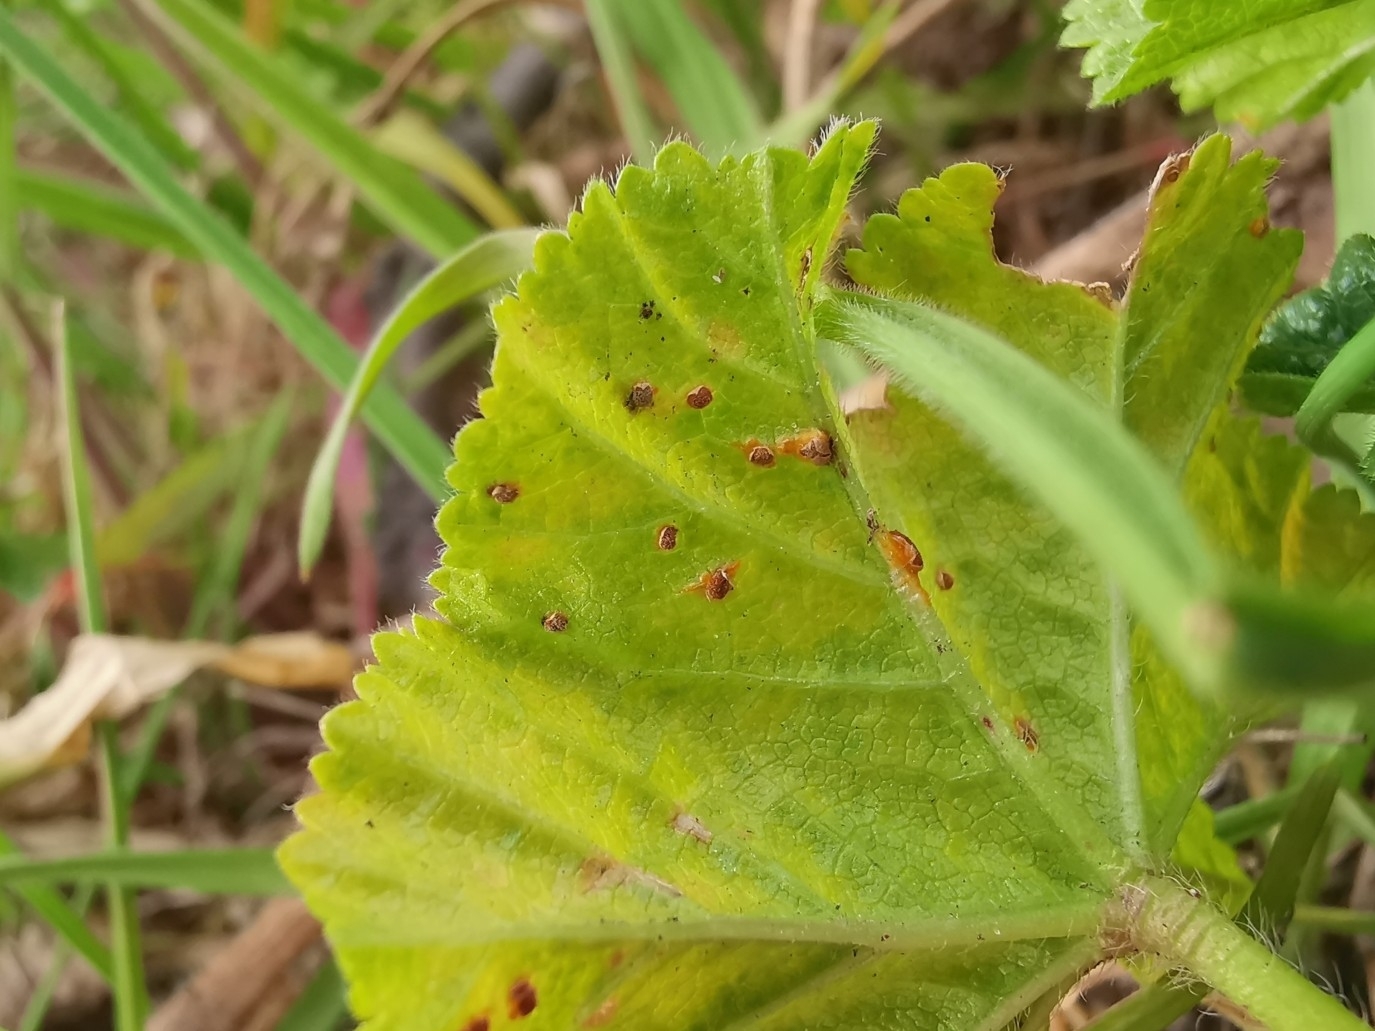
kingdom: Fungi
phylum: Basidiomycota
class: Pucciniomycetes
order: Pucciniales
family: Pucciniaceae
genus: Puccinia
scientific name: Puccinia malvacearum
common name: Hollyhock rust
